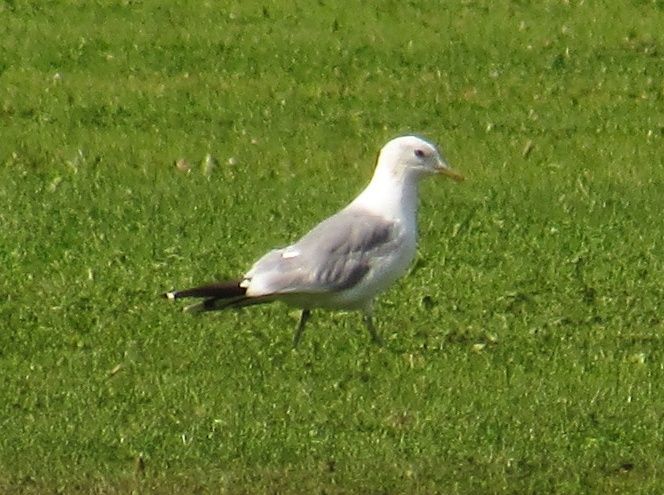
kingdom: Animalia
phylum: Chordata
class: Aves
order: Charadriiformes
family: Laridae
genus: Larus
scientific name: Larus canus
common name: Mew gull
